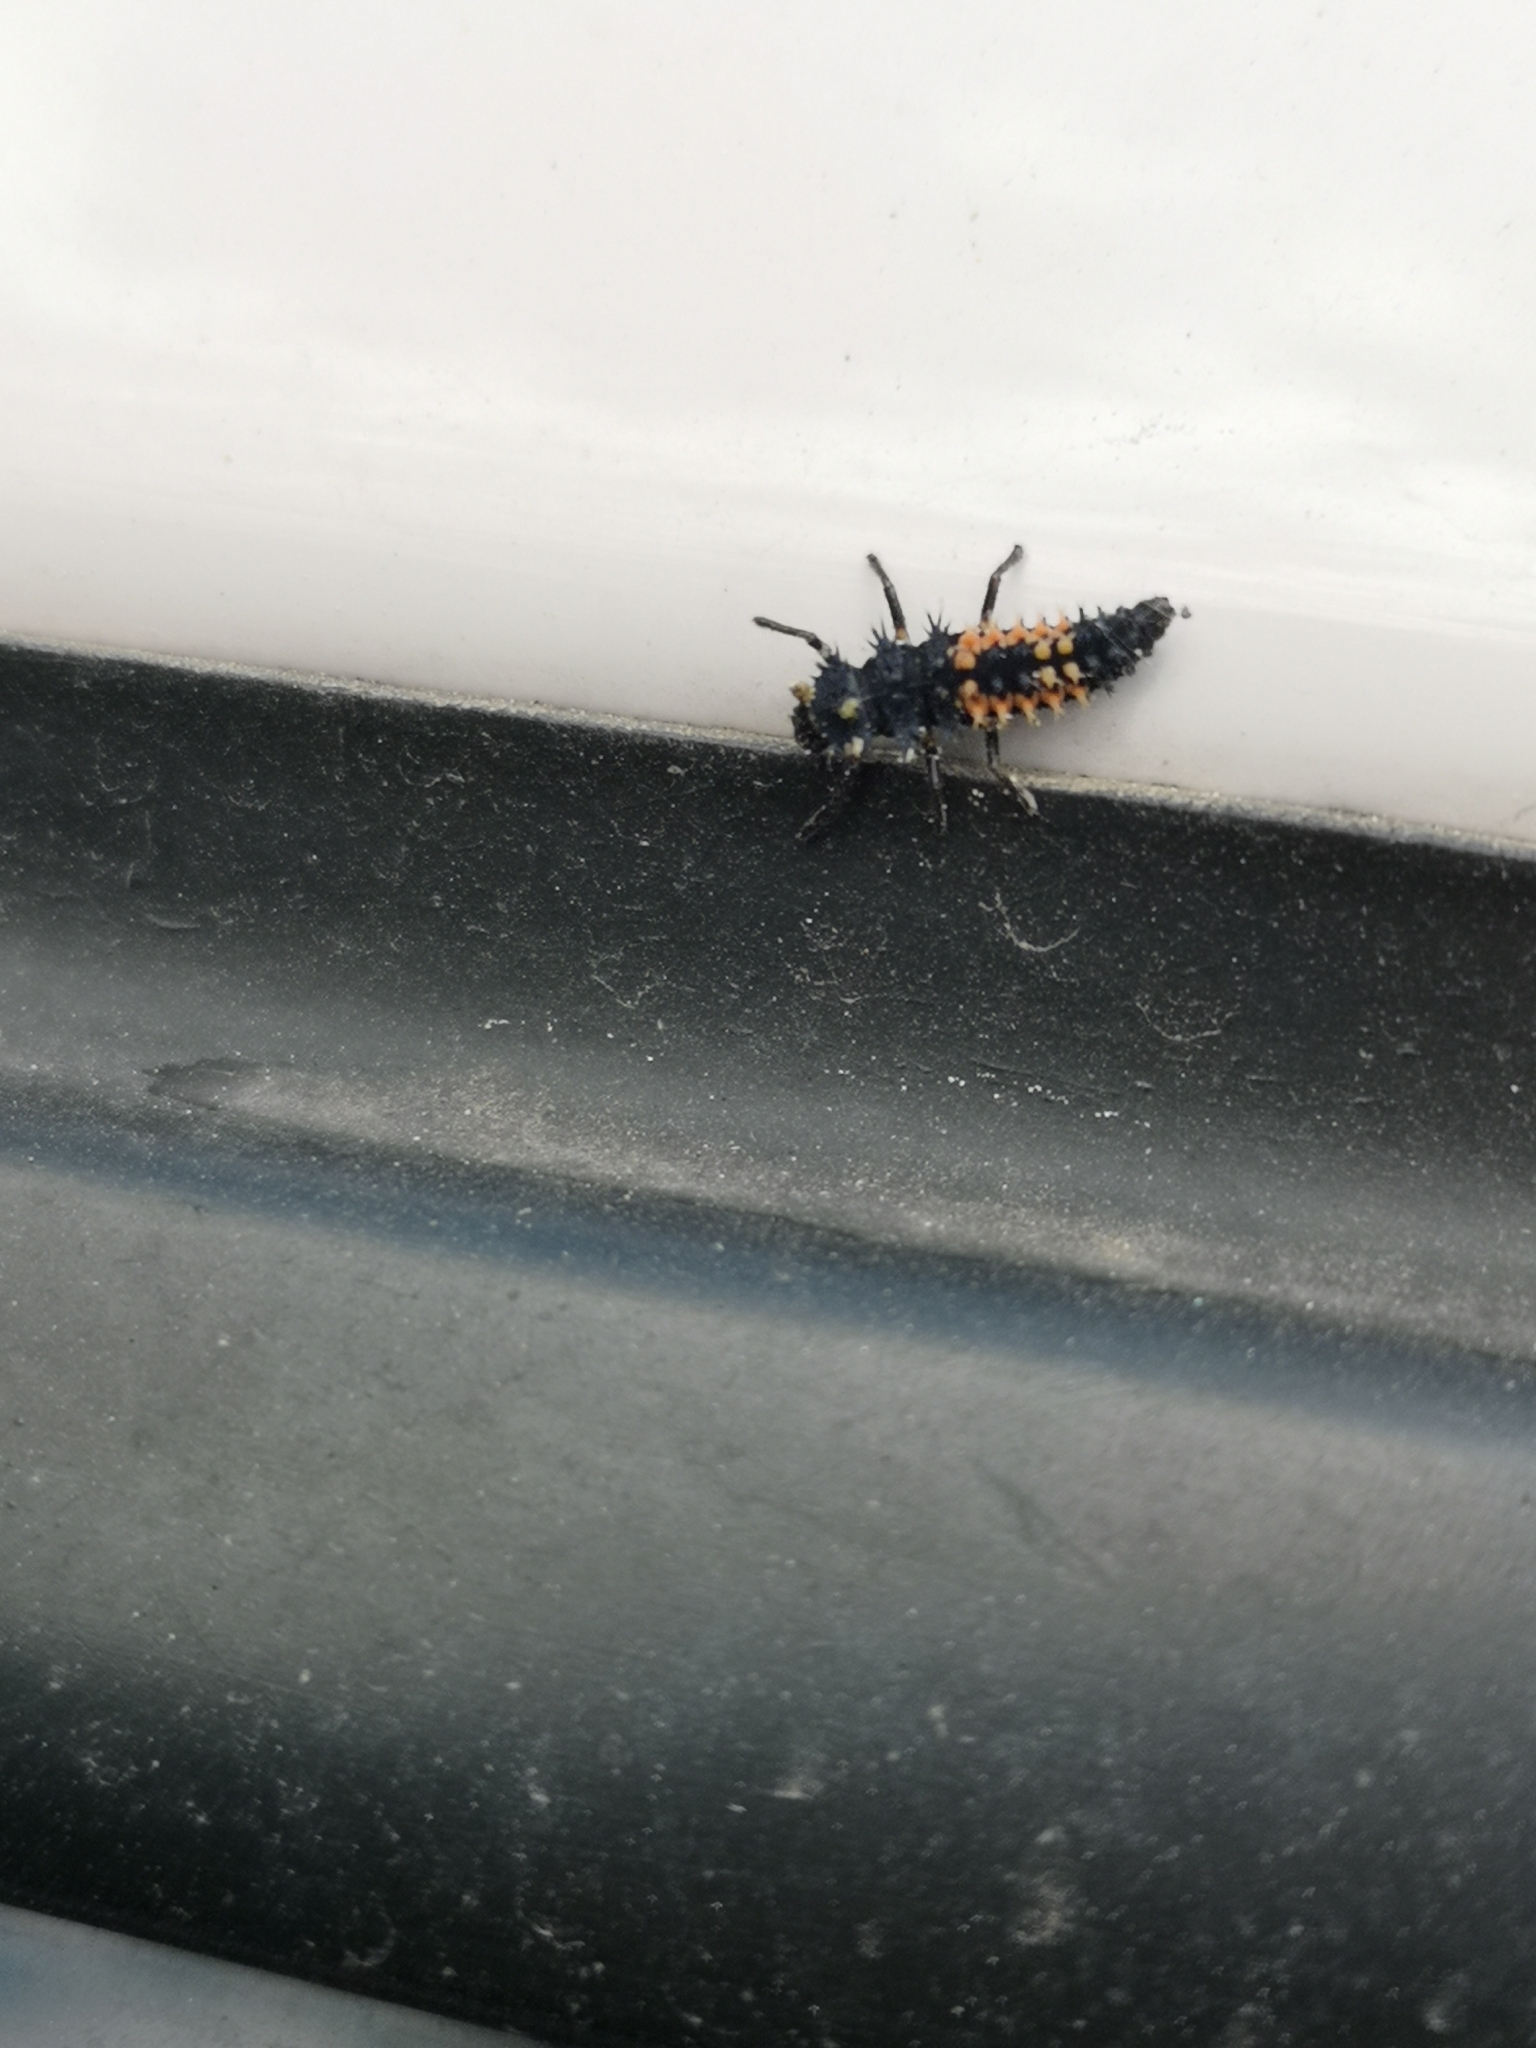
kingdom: Animalia
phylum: Arthropoda
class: Insecta
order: Coleoptera
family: Coccinellidae
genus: Harmonia
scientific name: Harmonia axyridis
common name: Harlequin ladybird
